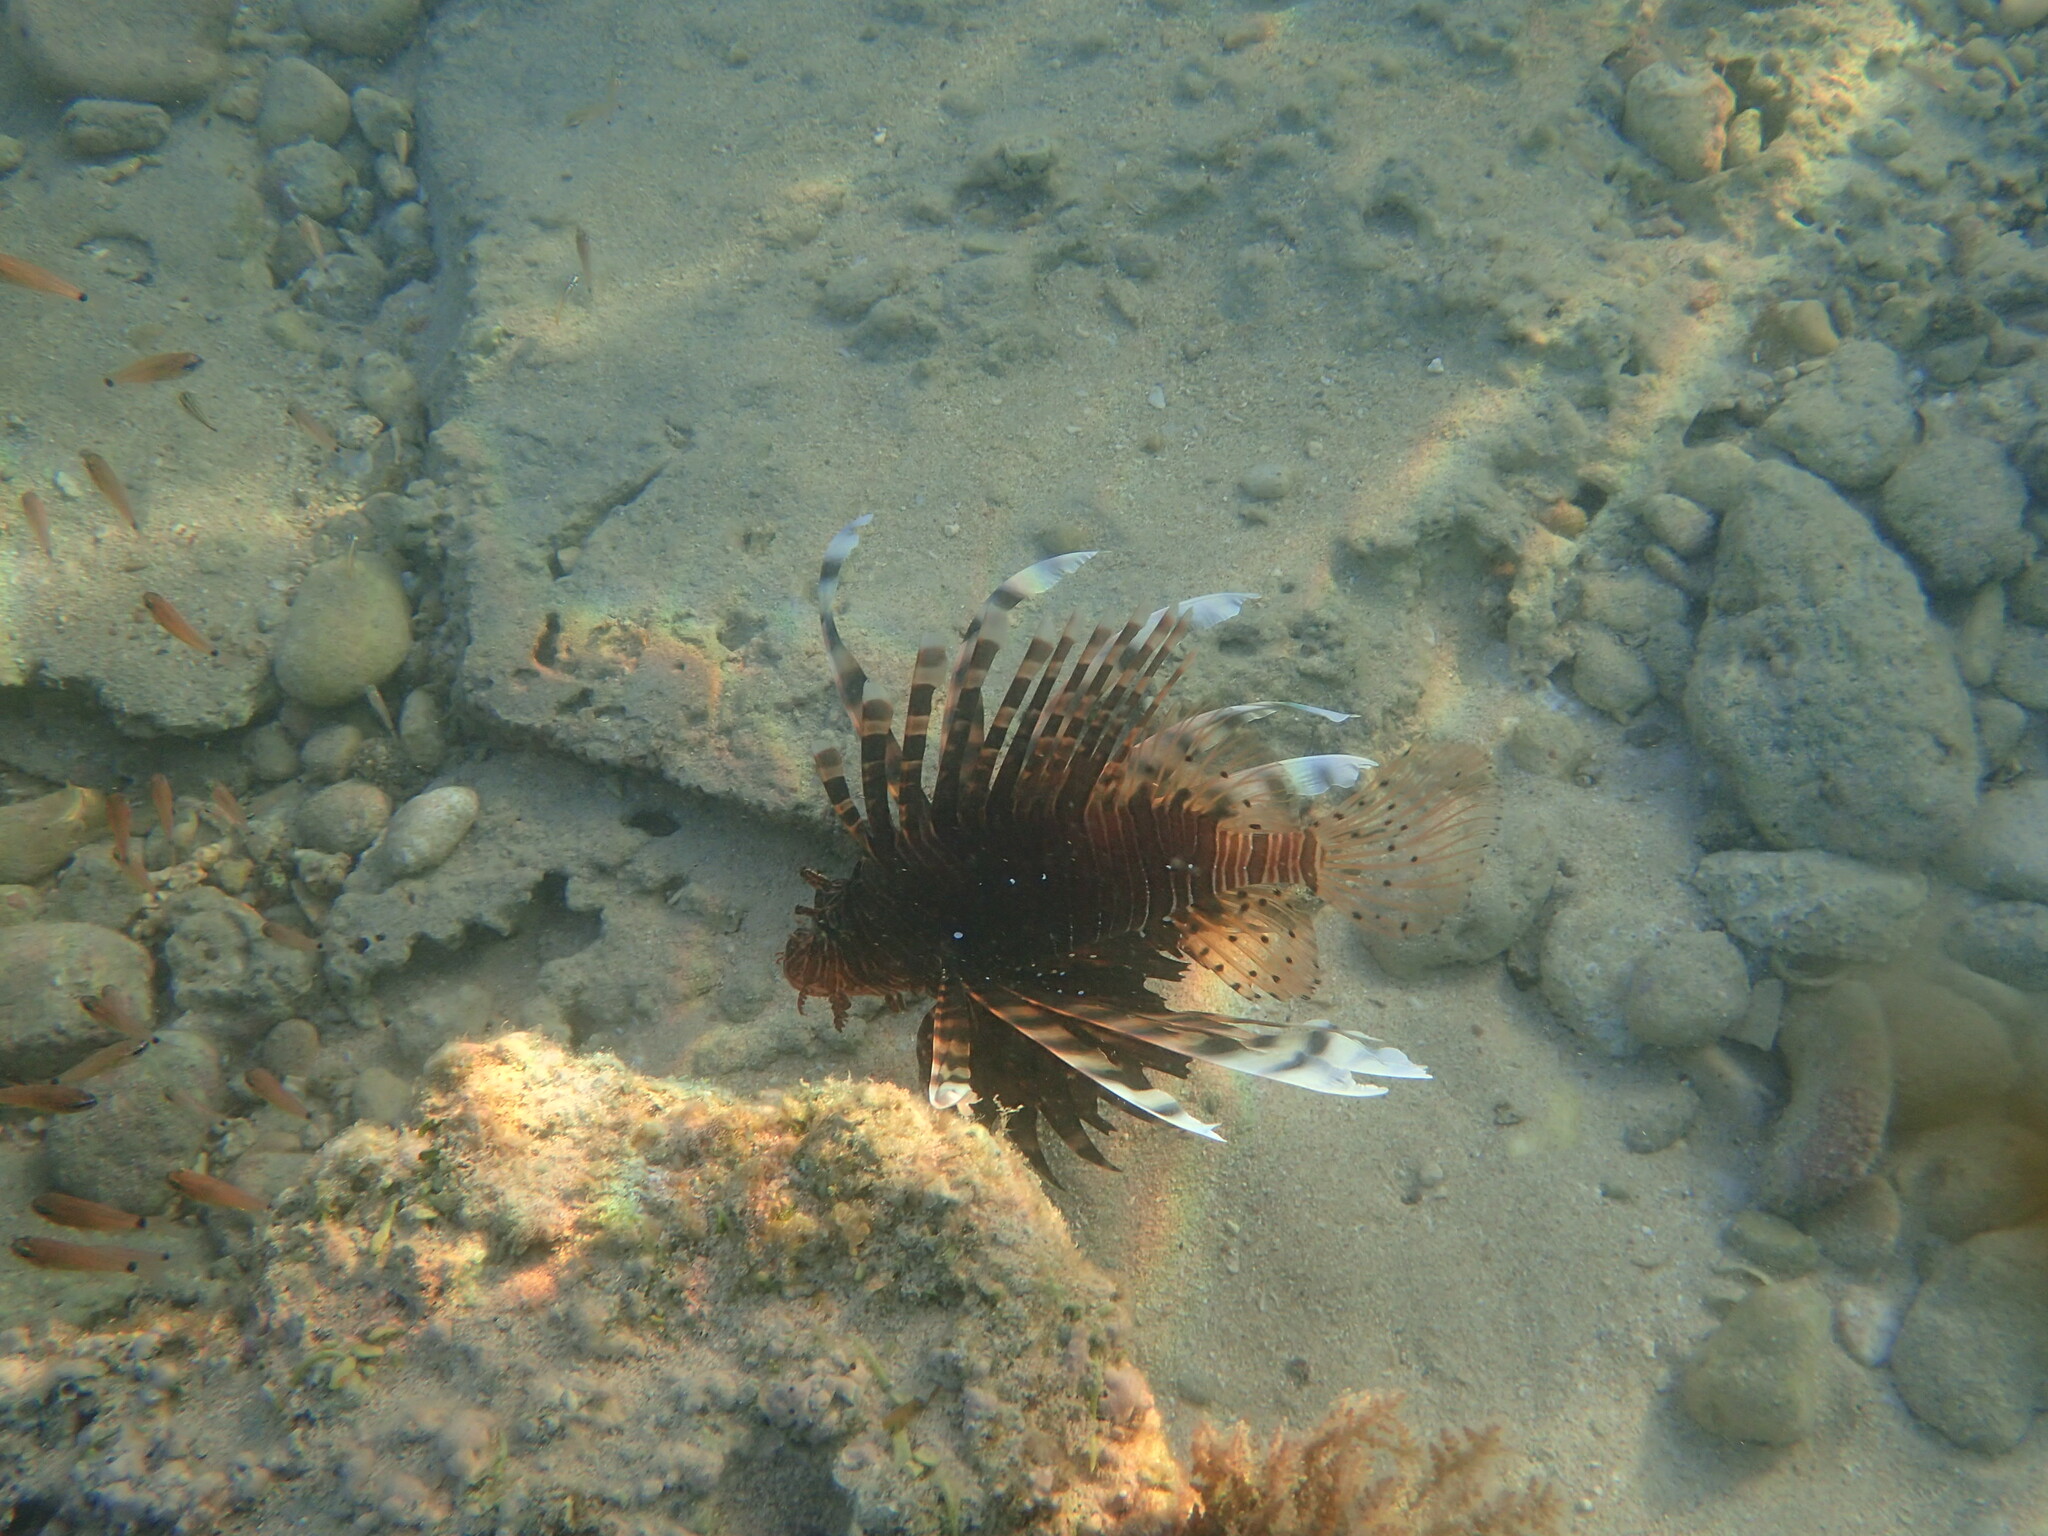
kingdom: Animalia
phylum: Chordata
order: Scorpaeniformes
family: Scorpaenidae
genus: Pterois
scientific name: Pterois volitans
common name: Lionfish
